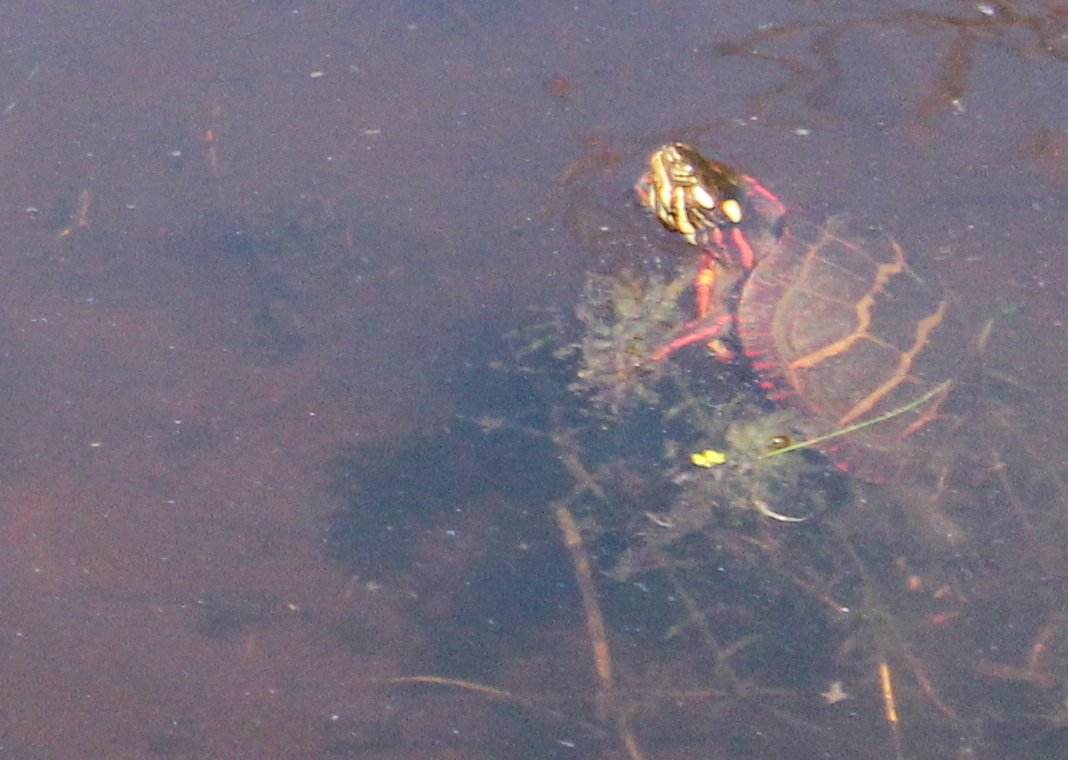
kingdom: Animalia
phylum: Chordata
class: Testudines
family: Emydidae
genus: Chrysemys
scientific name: Chrysemys picta
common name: Painted turtle
